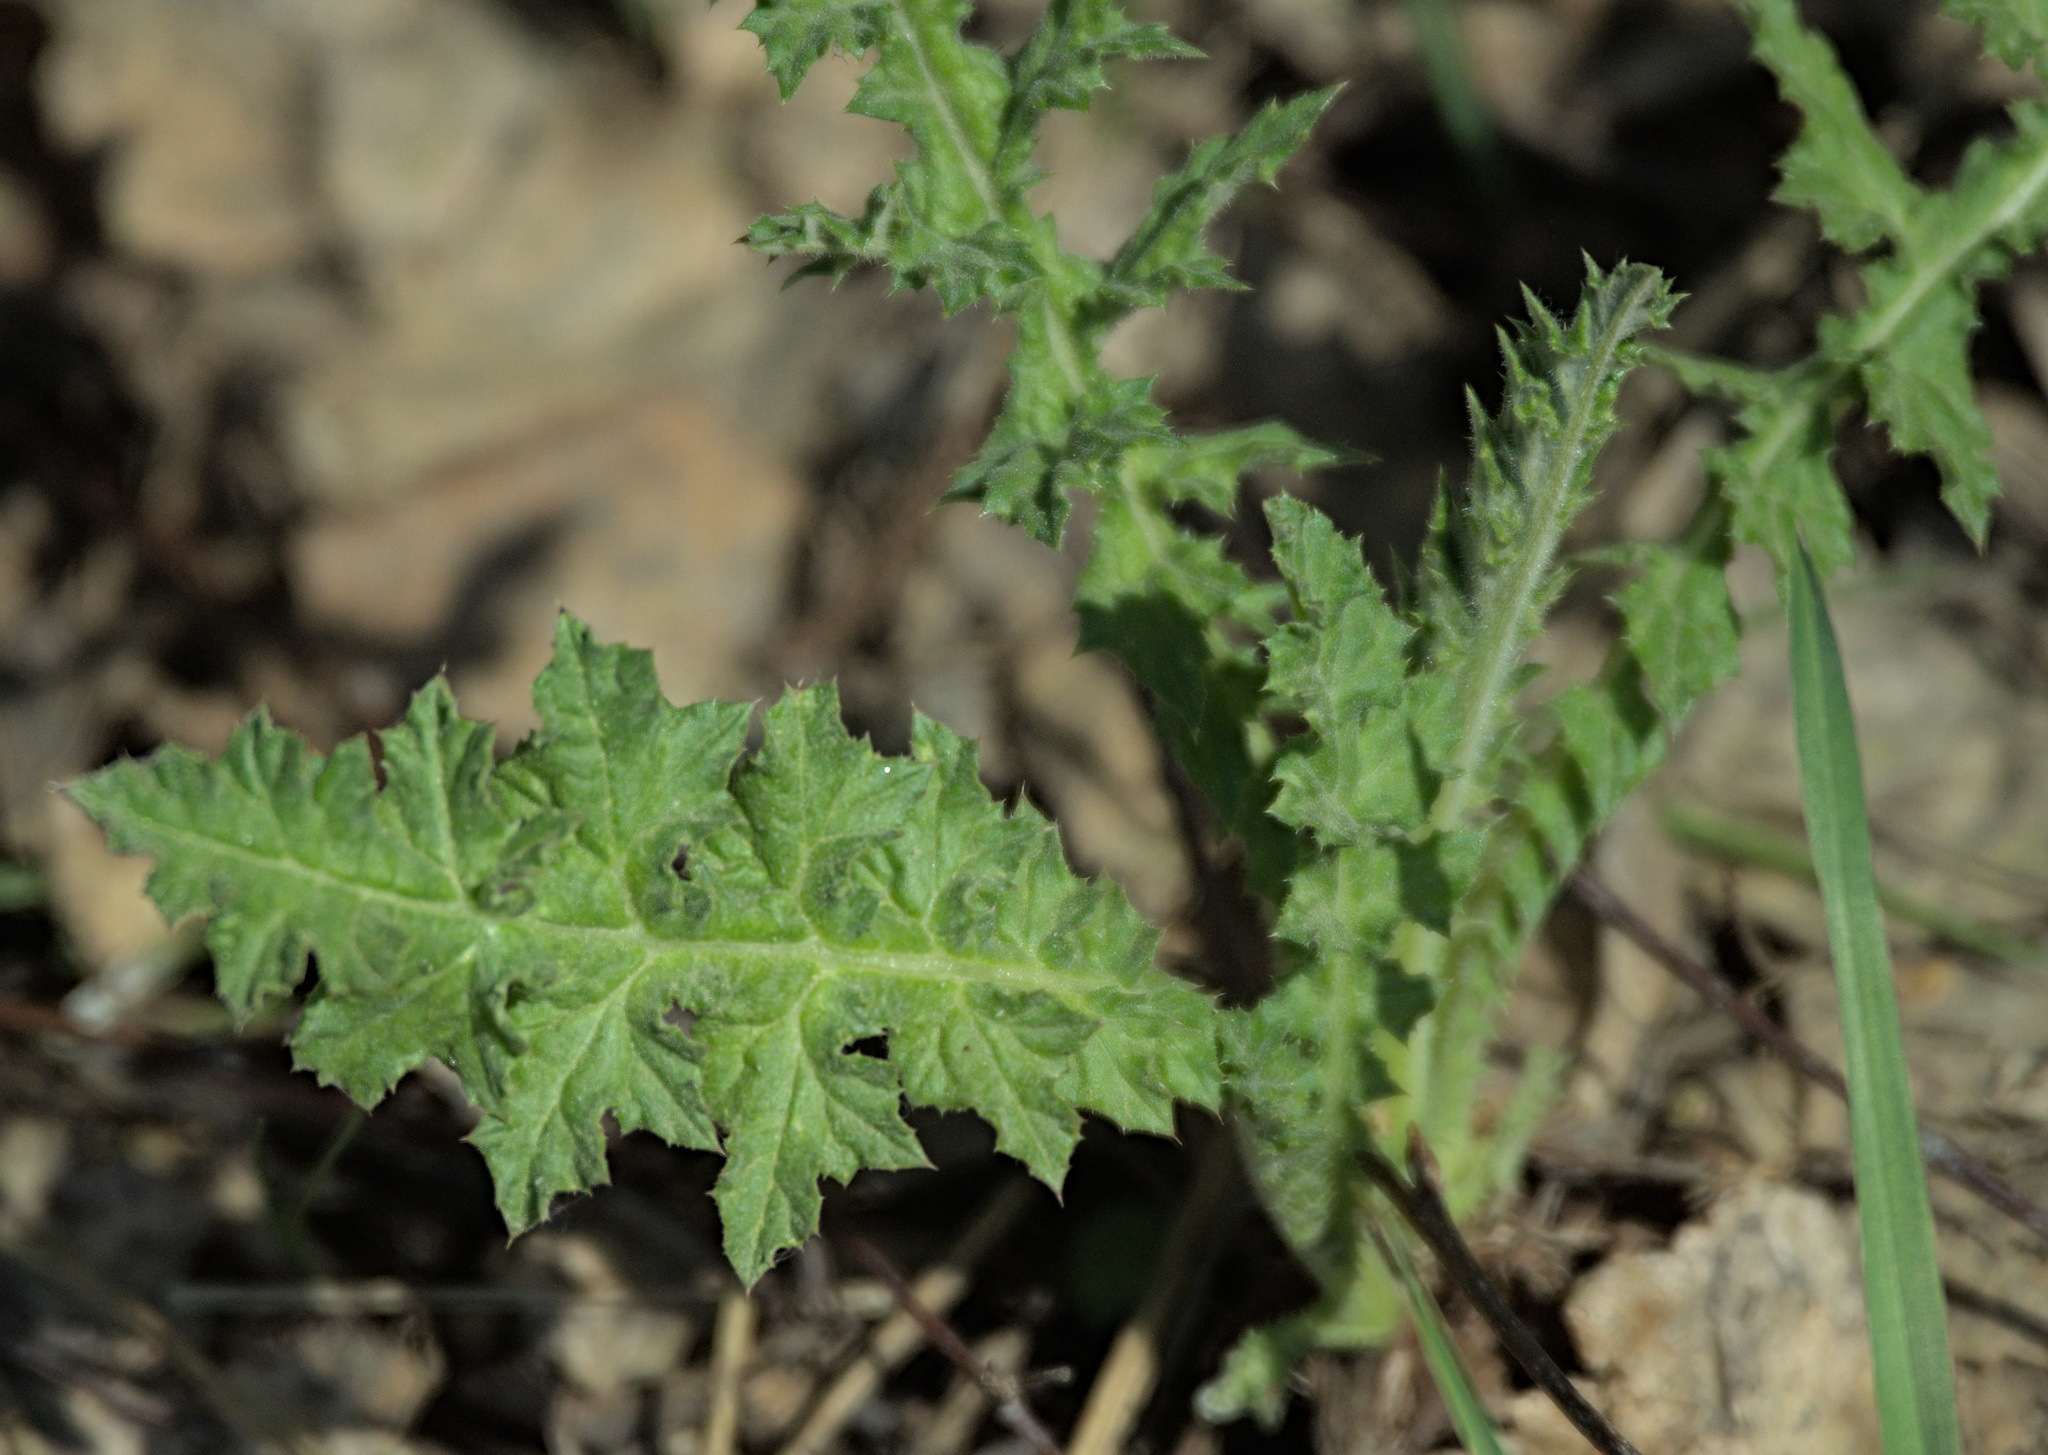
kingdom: Plantae
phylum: Tracheophyta
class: Magnoliopsida
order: Asterales
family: Asteraceae
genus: Echinops
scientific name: Echinops sphaerocephalus
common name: Glandular globe-thistle
